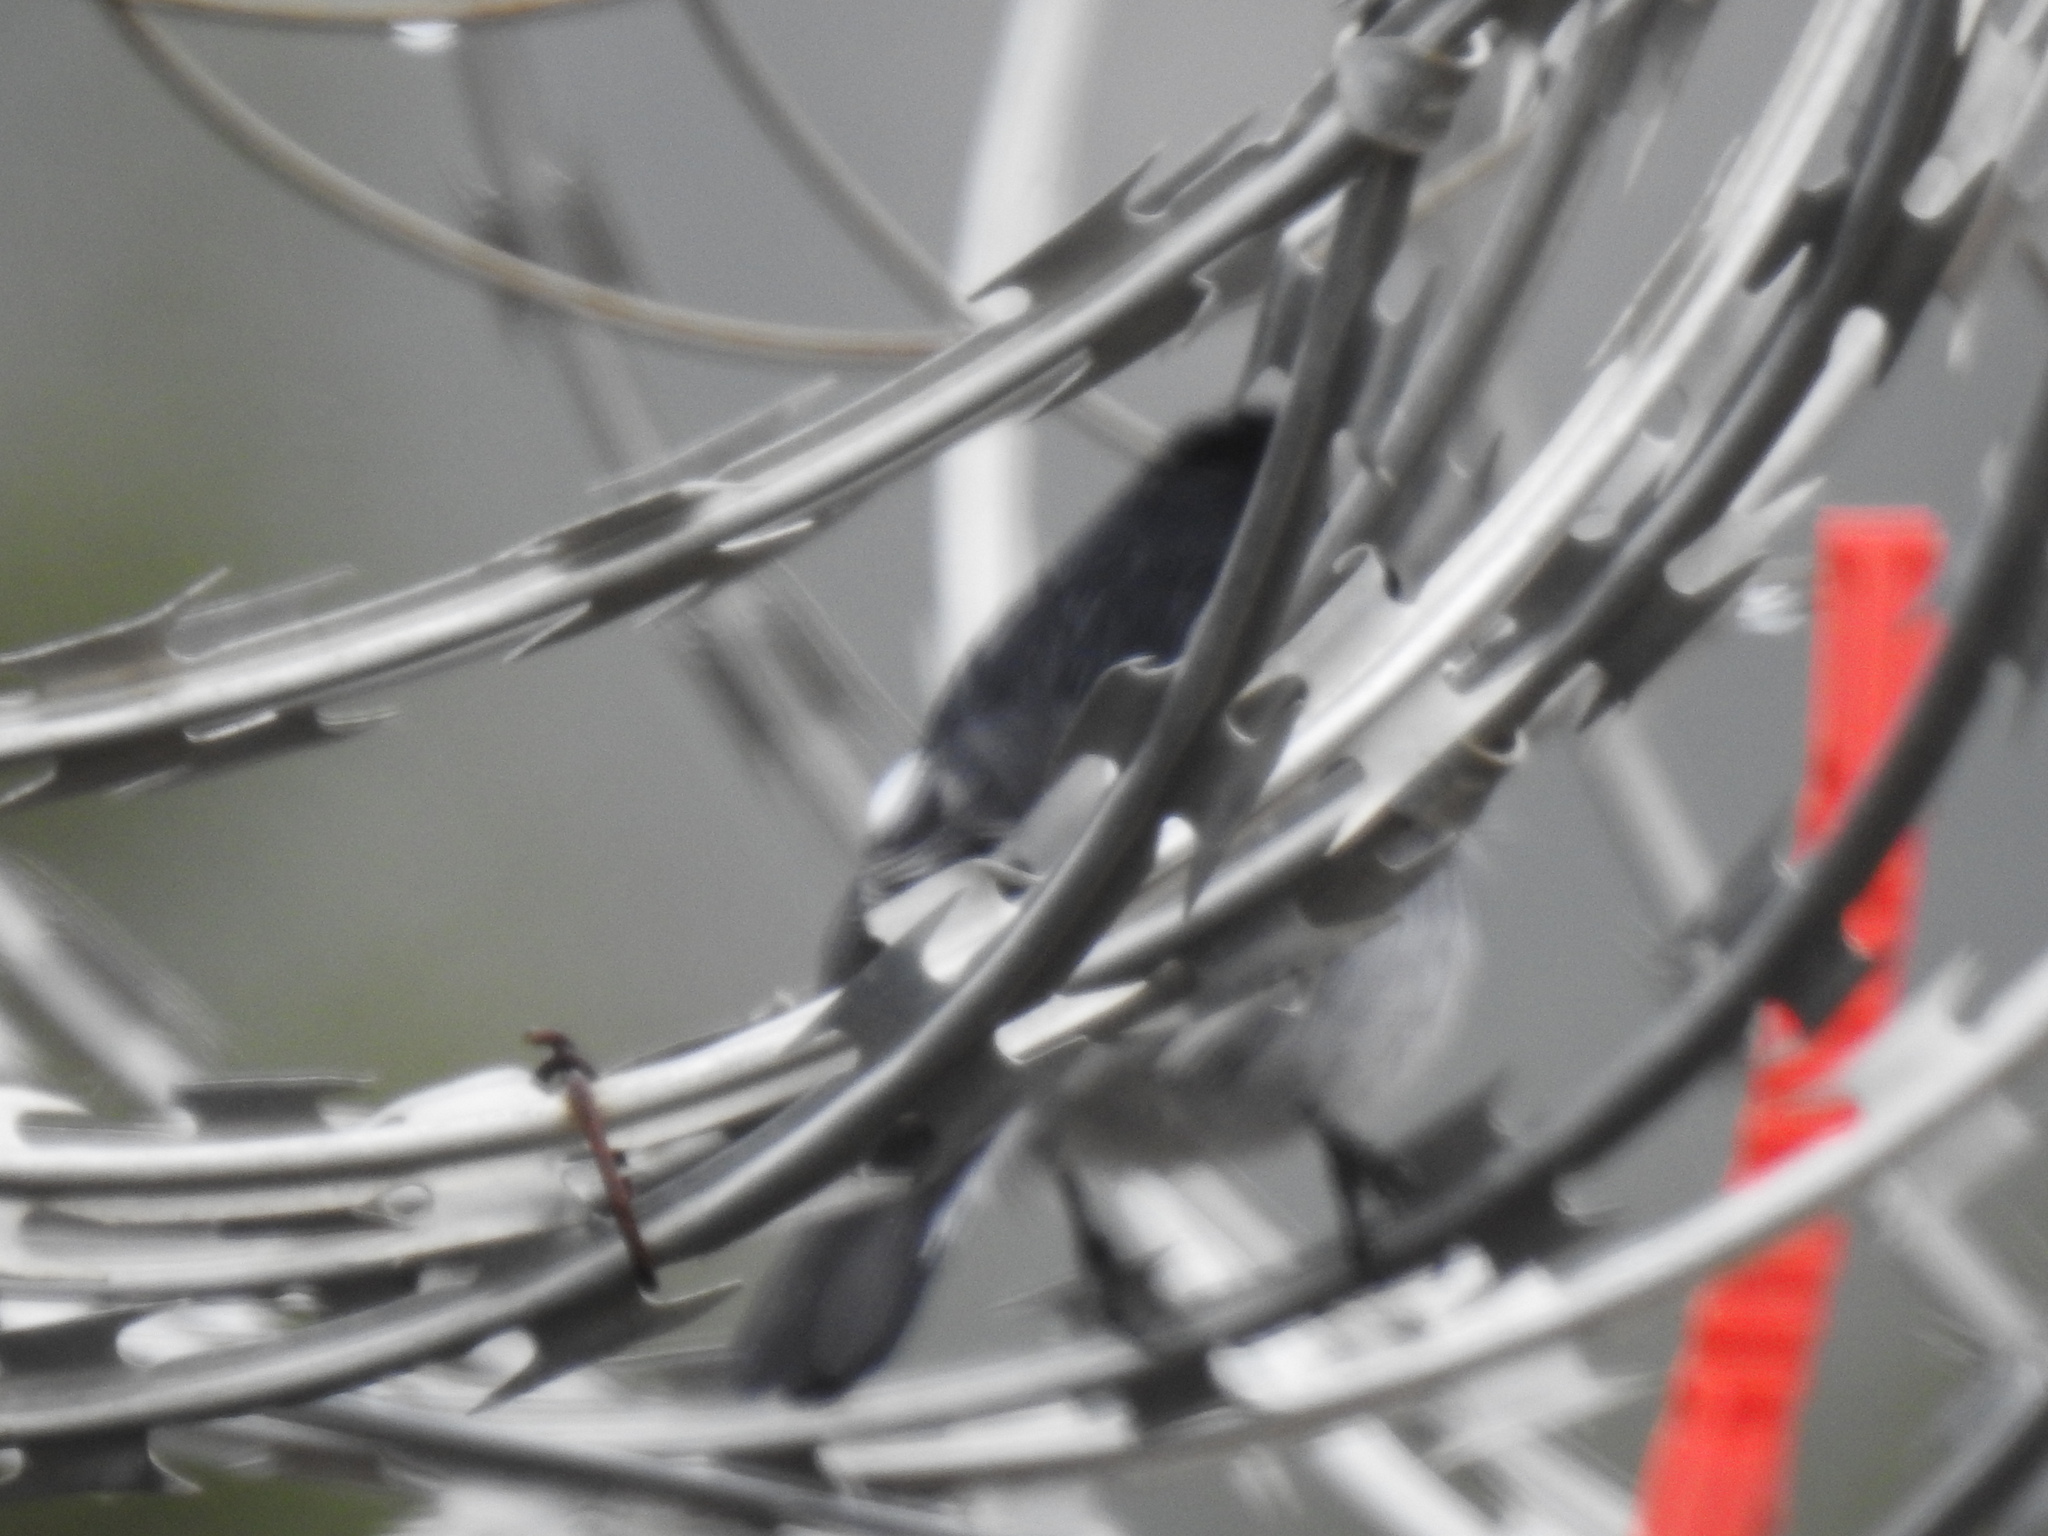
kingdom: Animalia
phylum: Chordata
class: Aves
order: Passeriformes
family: Muscicapidae
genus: Sigelus
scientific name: Sigelus silens
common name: Fiscal flycatcher
